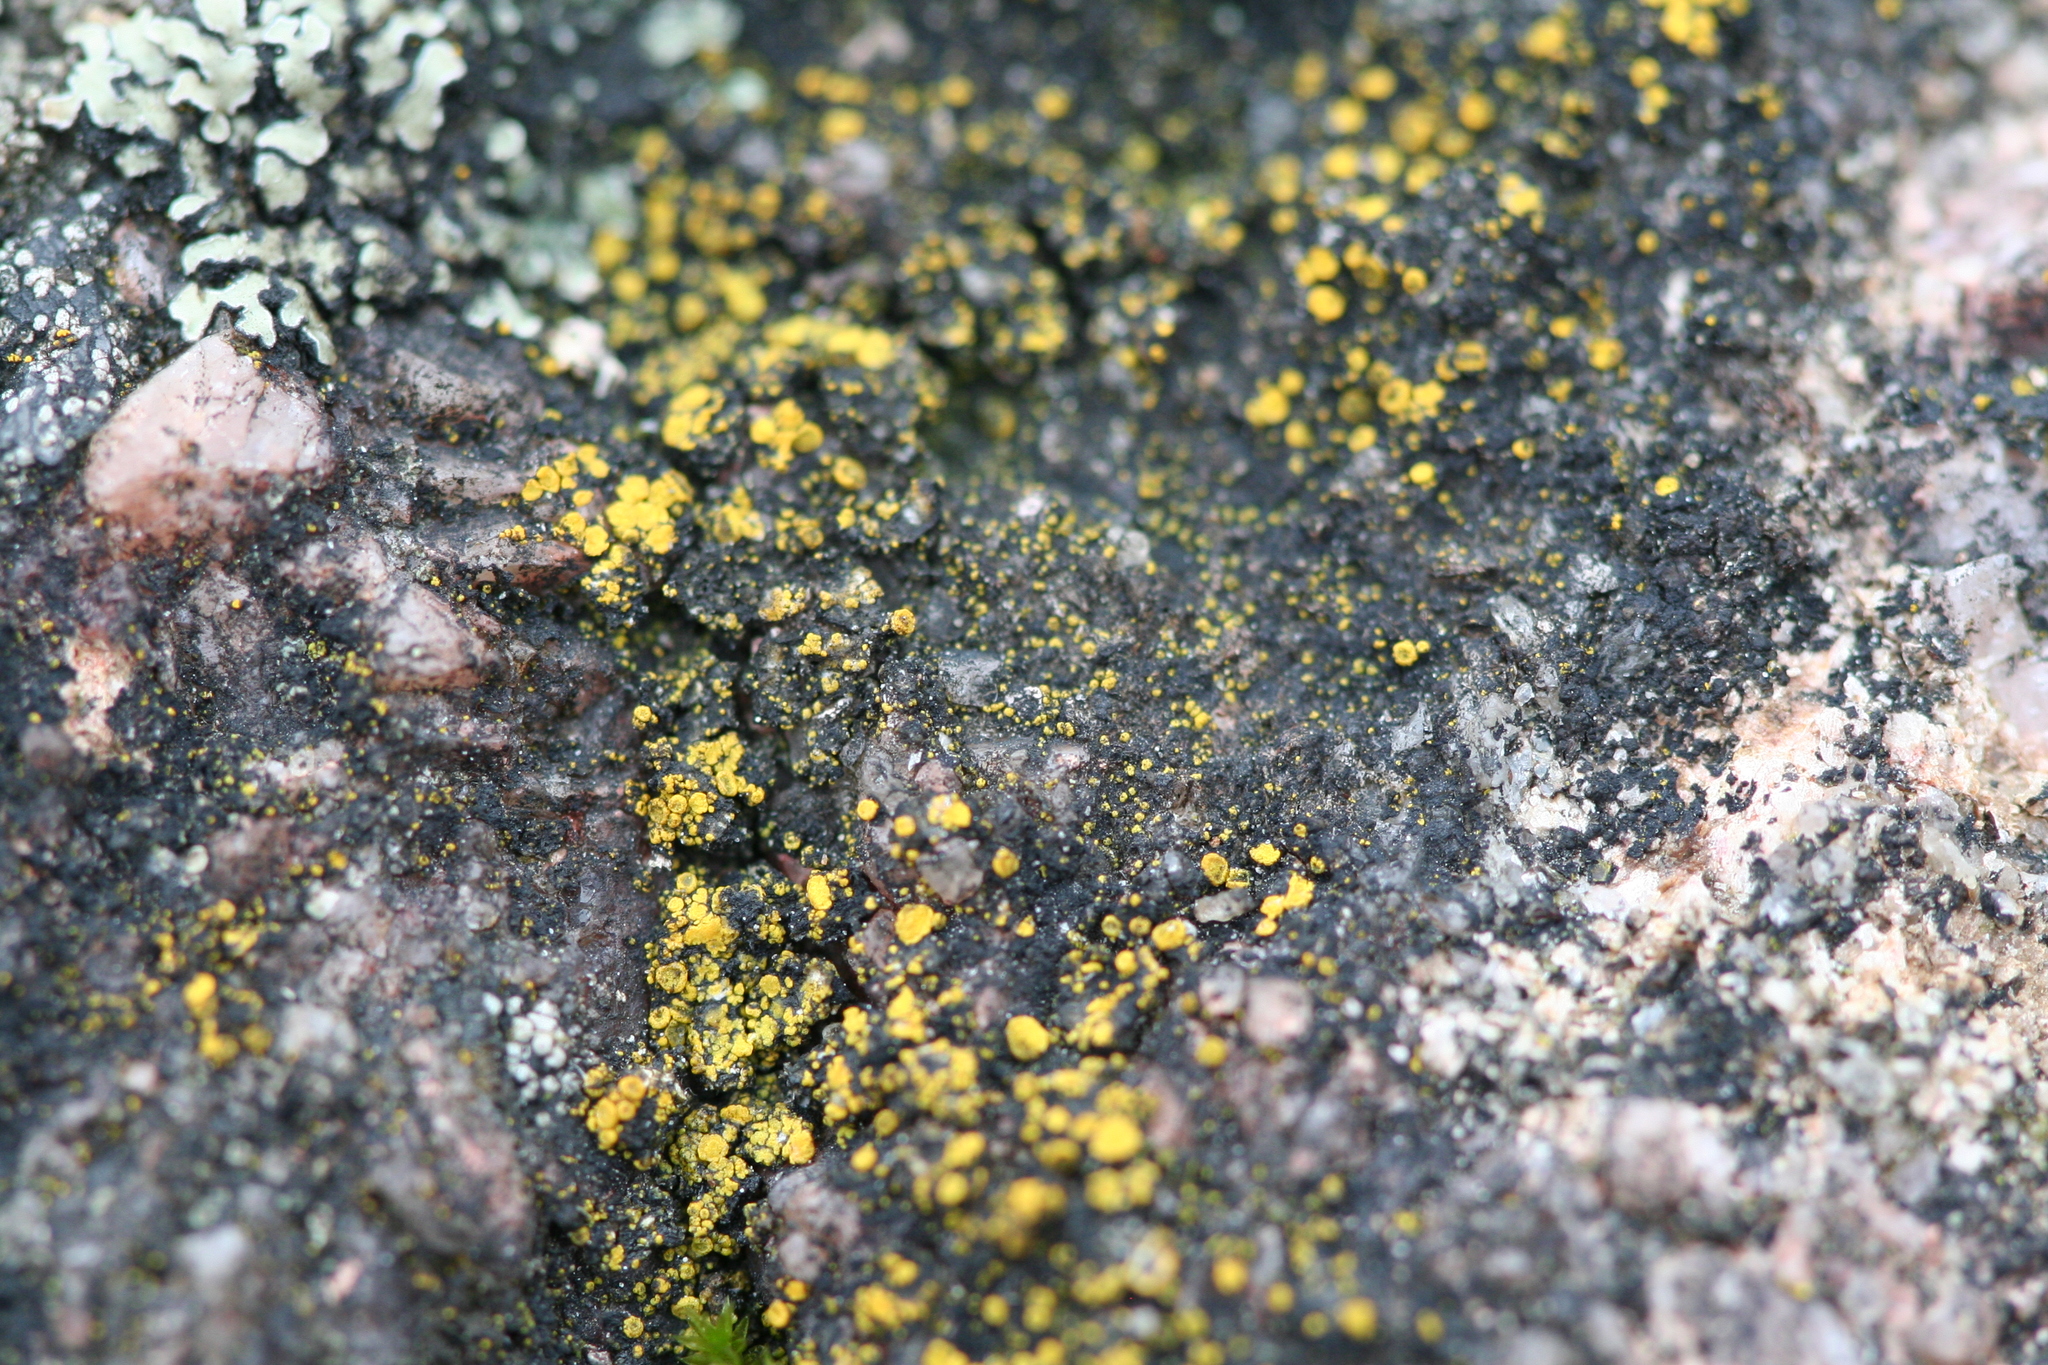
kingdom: Fungi
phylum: Ascomycota
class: Candelariomycetes
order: Candelariales
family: Candelariaceae
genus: Candelariella
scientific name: Candelariella vitellina
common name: Common goldspeck
